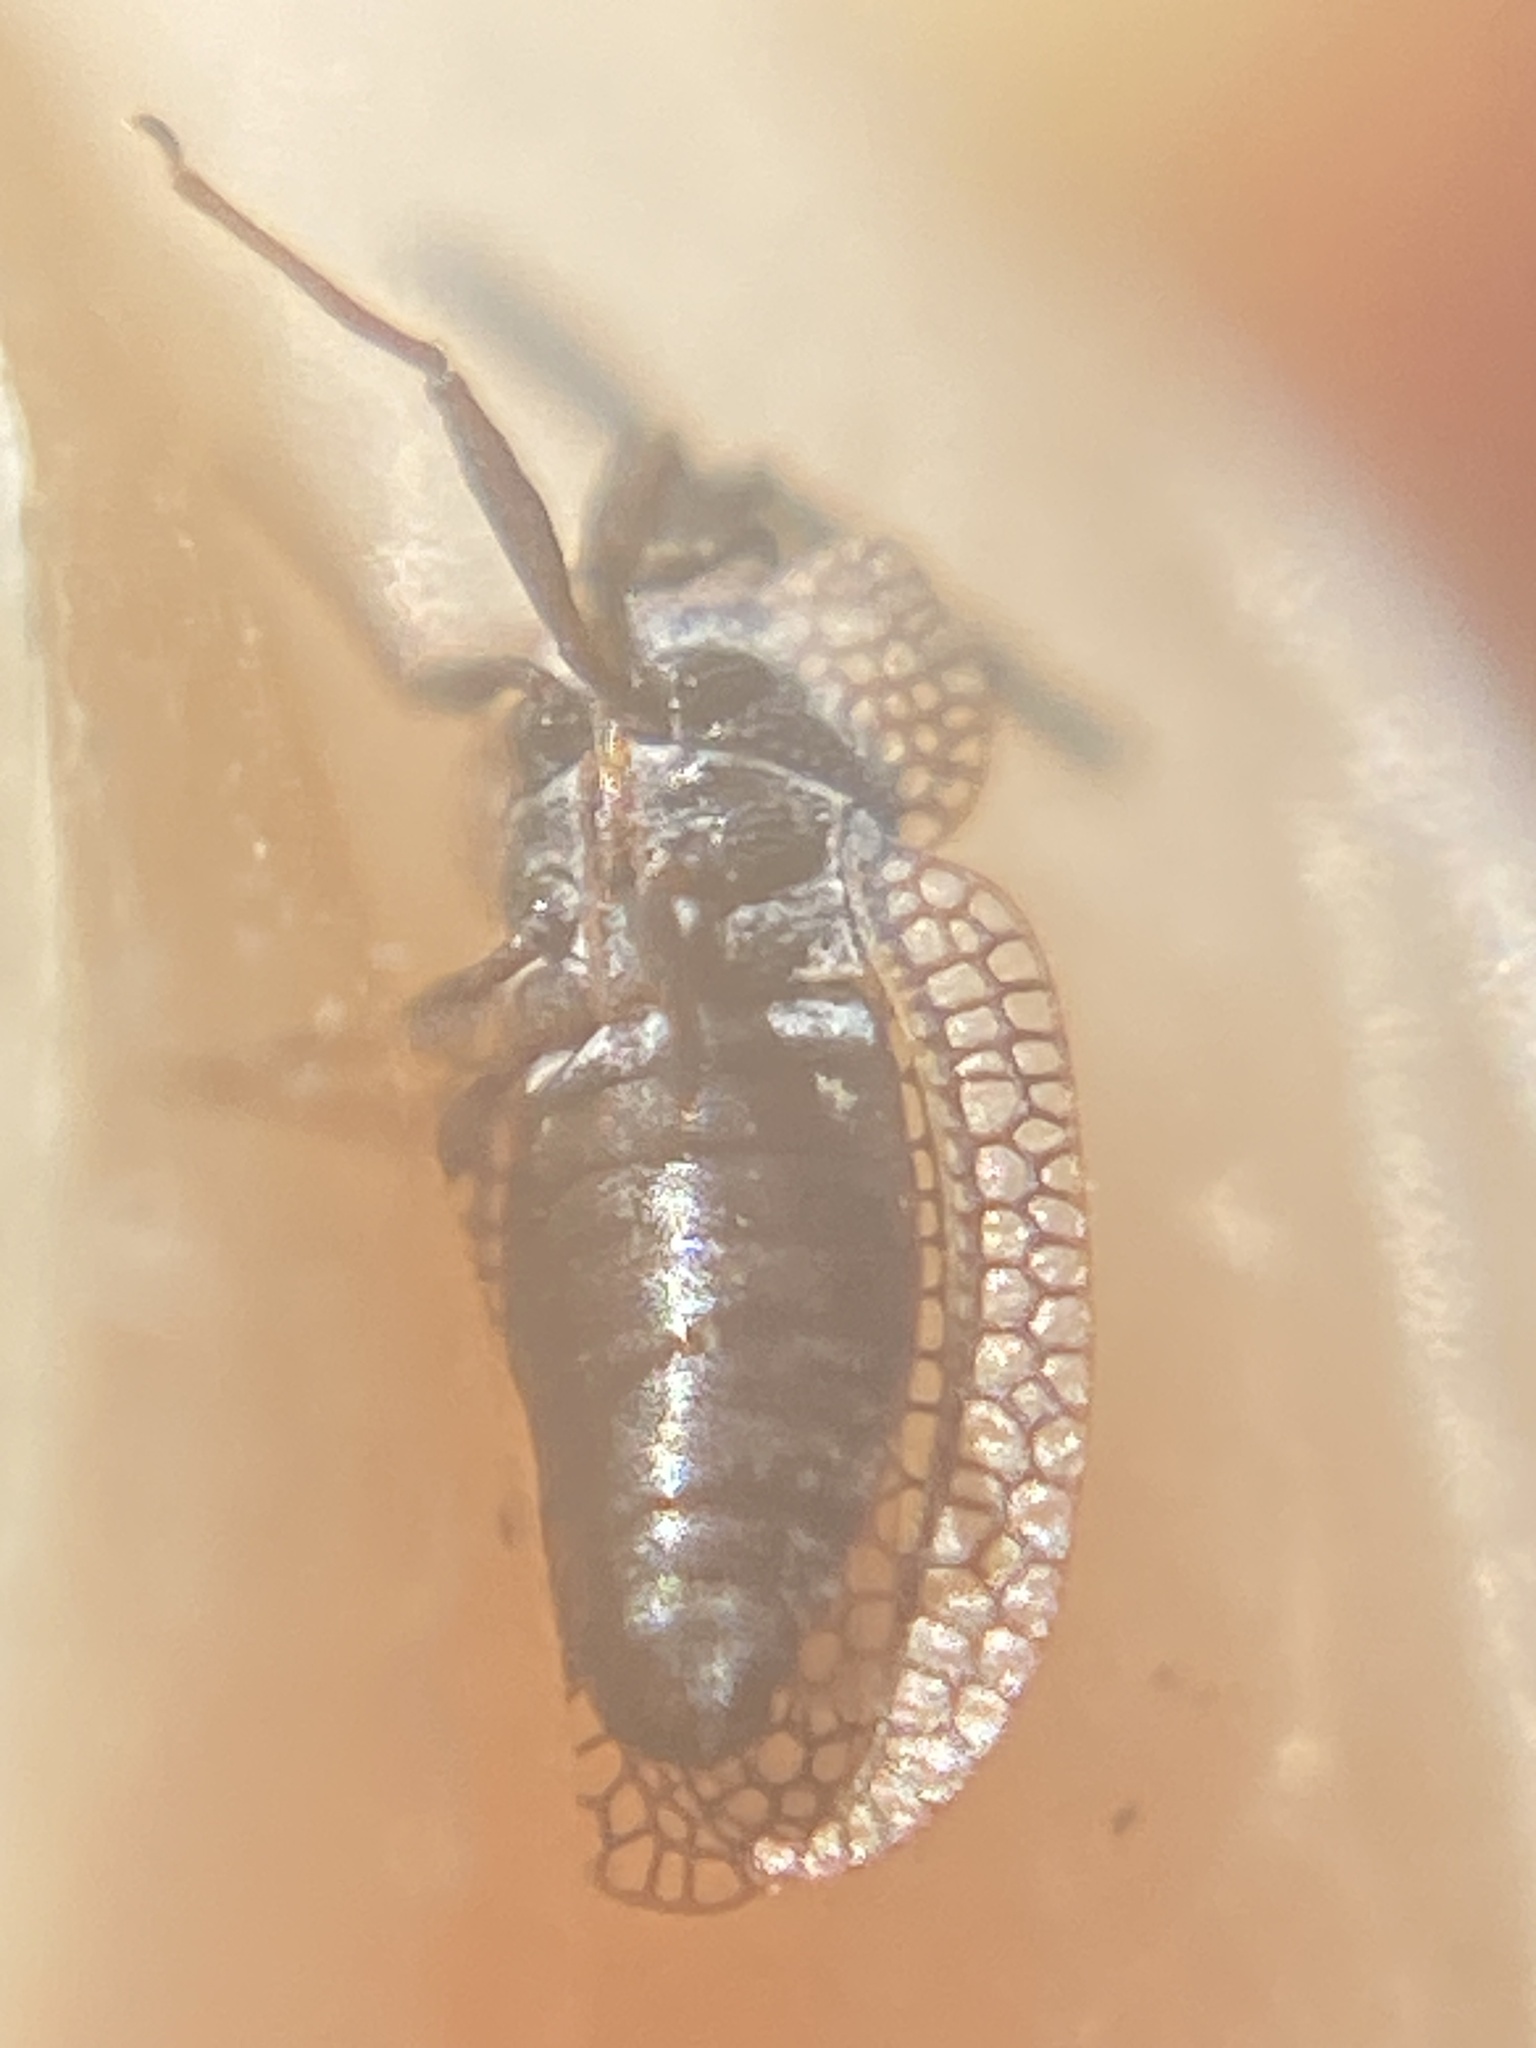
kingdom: Animalia
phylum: Arthropoda
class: Insecta
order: Hemiptera
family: Tingidae
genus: Dictyonota
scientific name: Dictyonota tricornis
